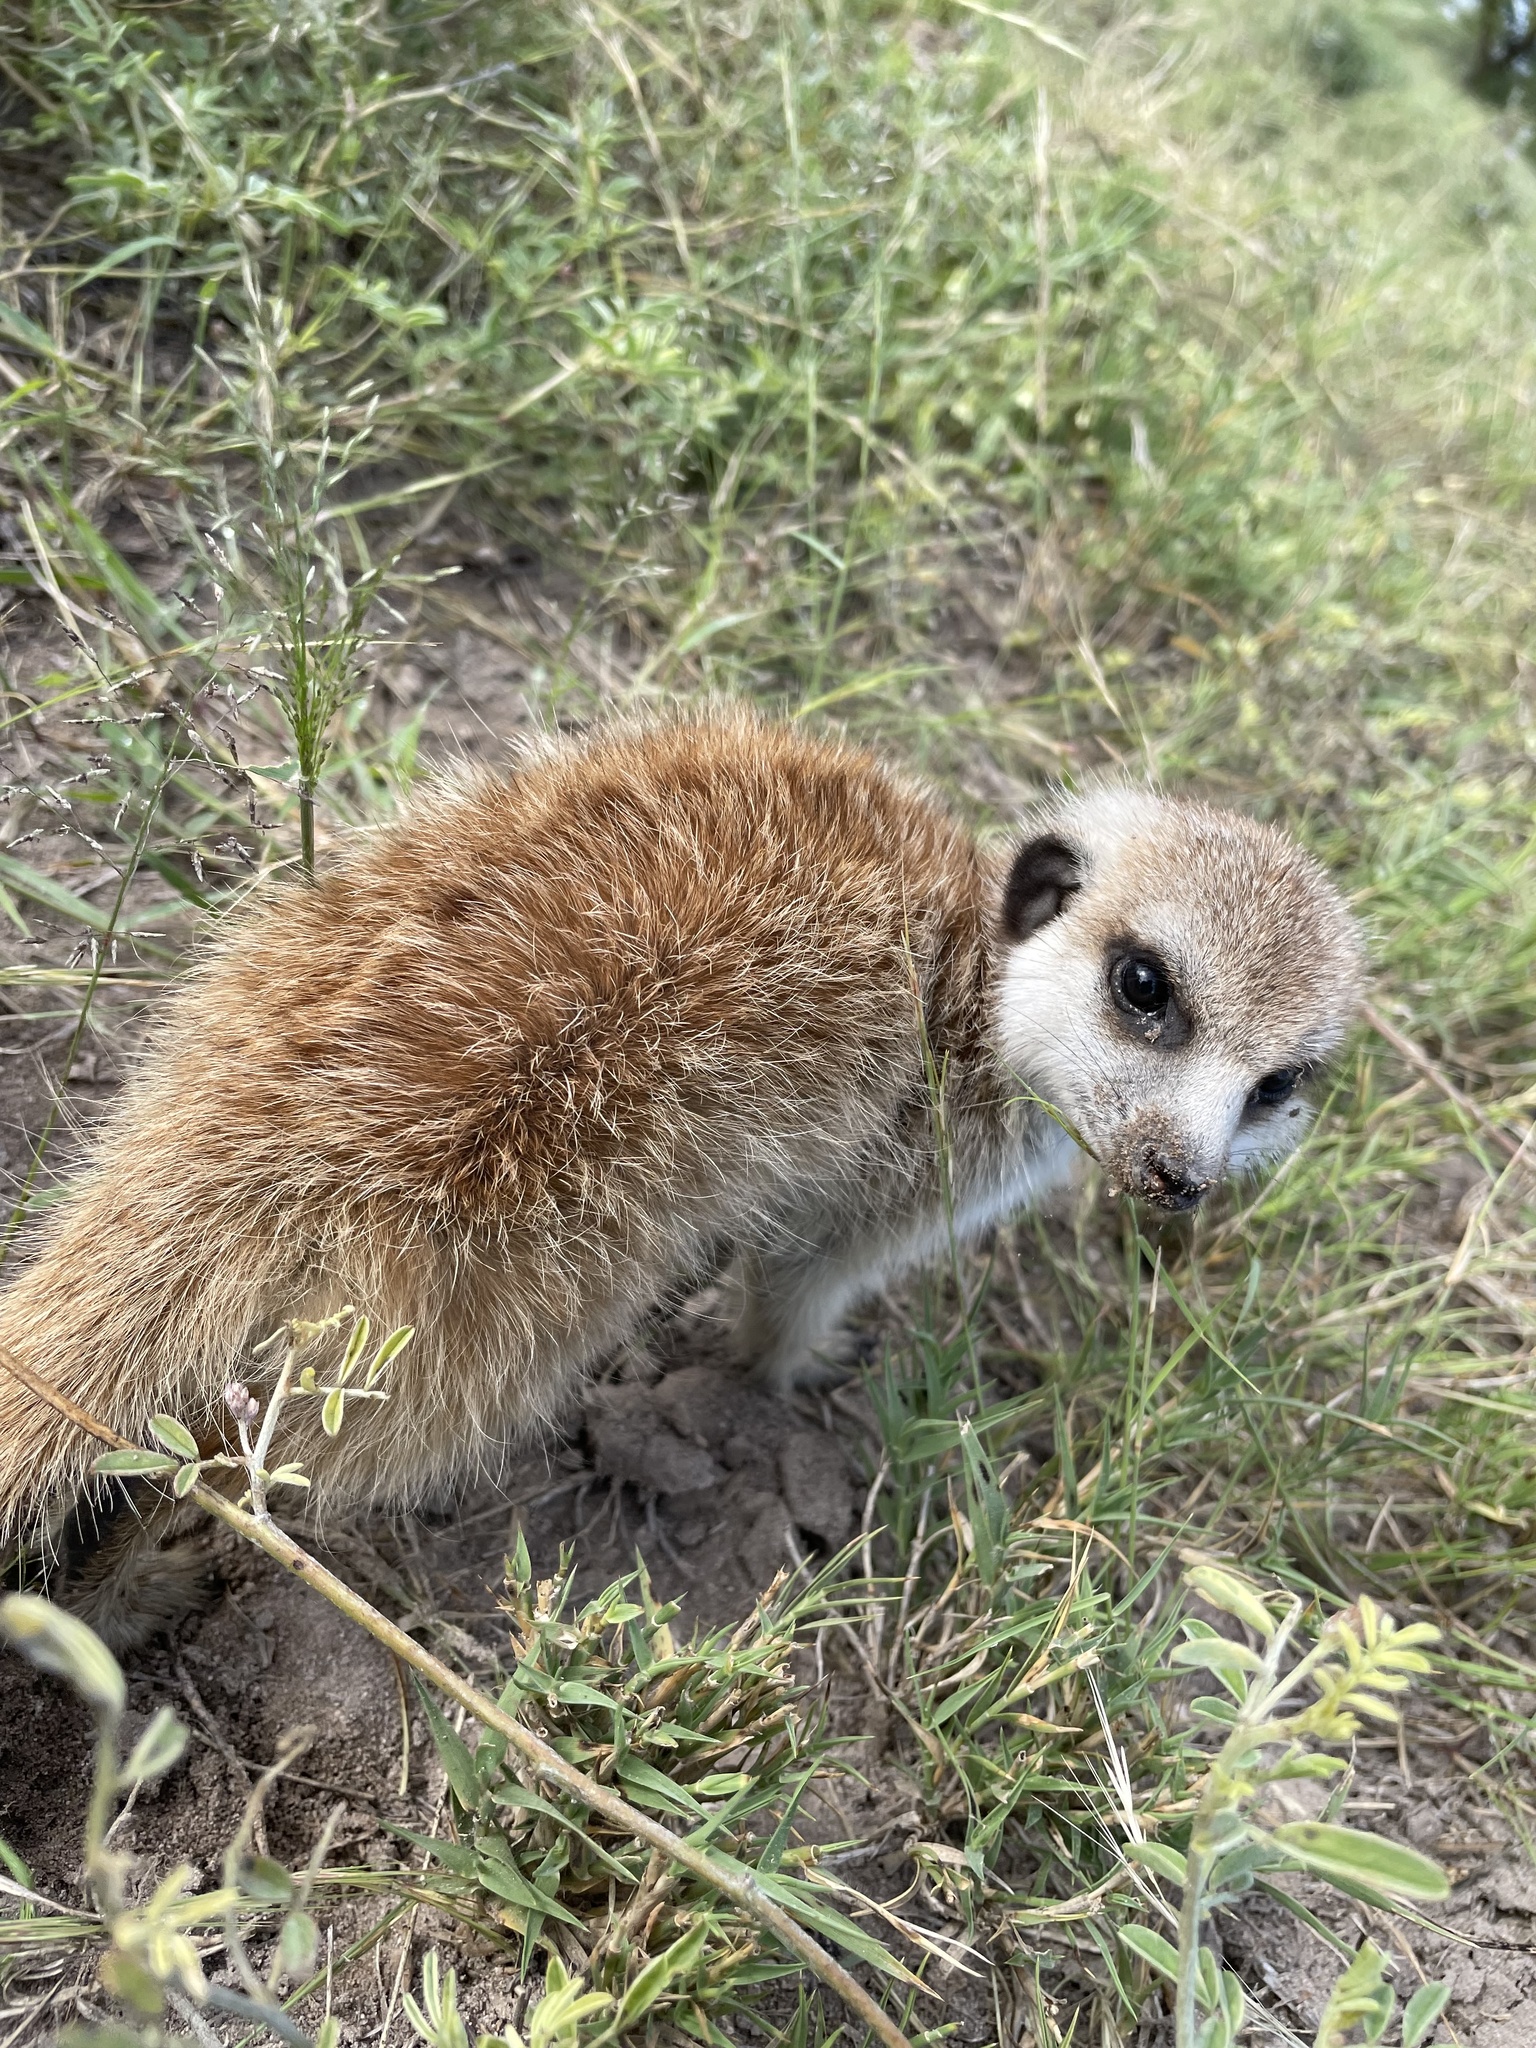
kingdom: Animalia
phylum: Chordata
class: Mammalia
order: Carnivora
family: Herpestidae
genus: Suricata
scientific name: Suricata suricatta
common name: Meerkat
